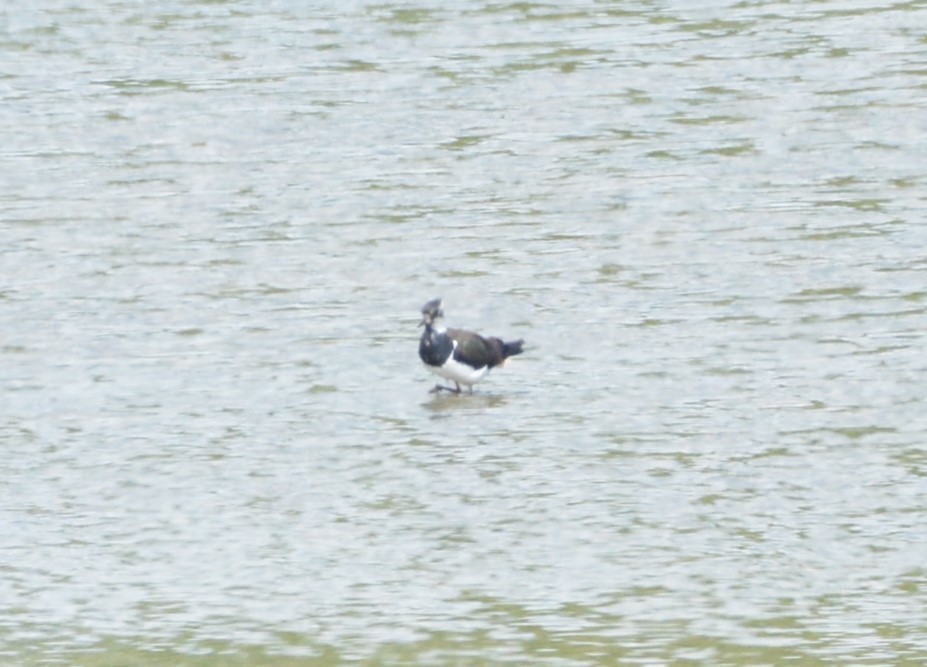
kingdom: Animalia
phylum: Chordata
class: Aves
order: Charadriiformes
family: Charadriidae
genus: Vanellus
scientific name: Vanellus vanellus
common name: Northern lapwing
